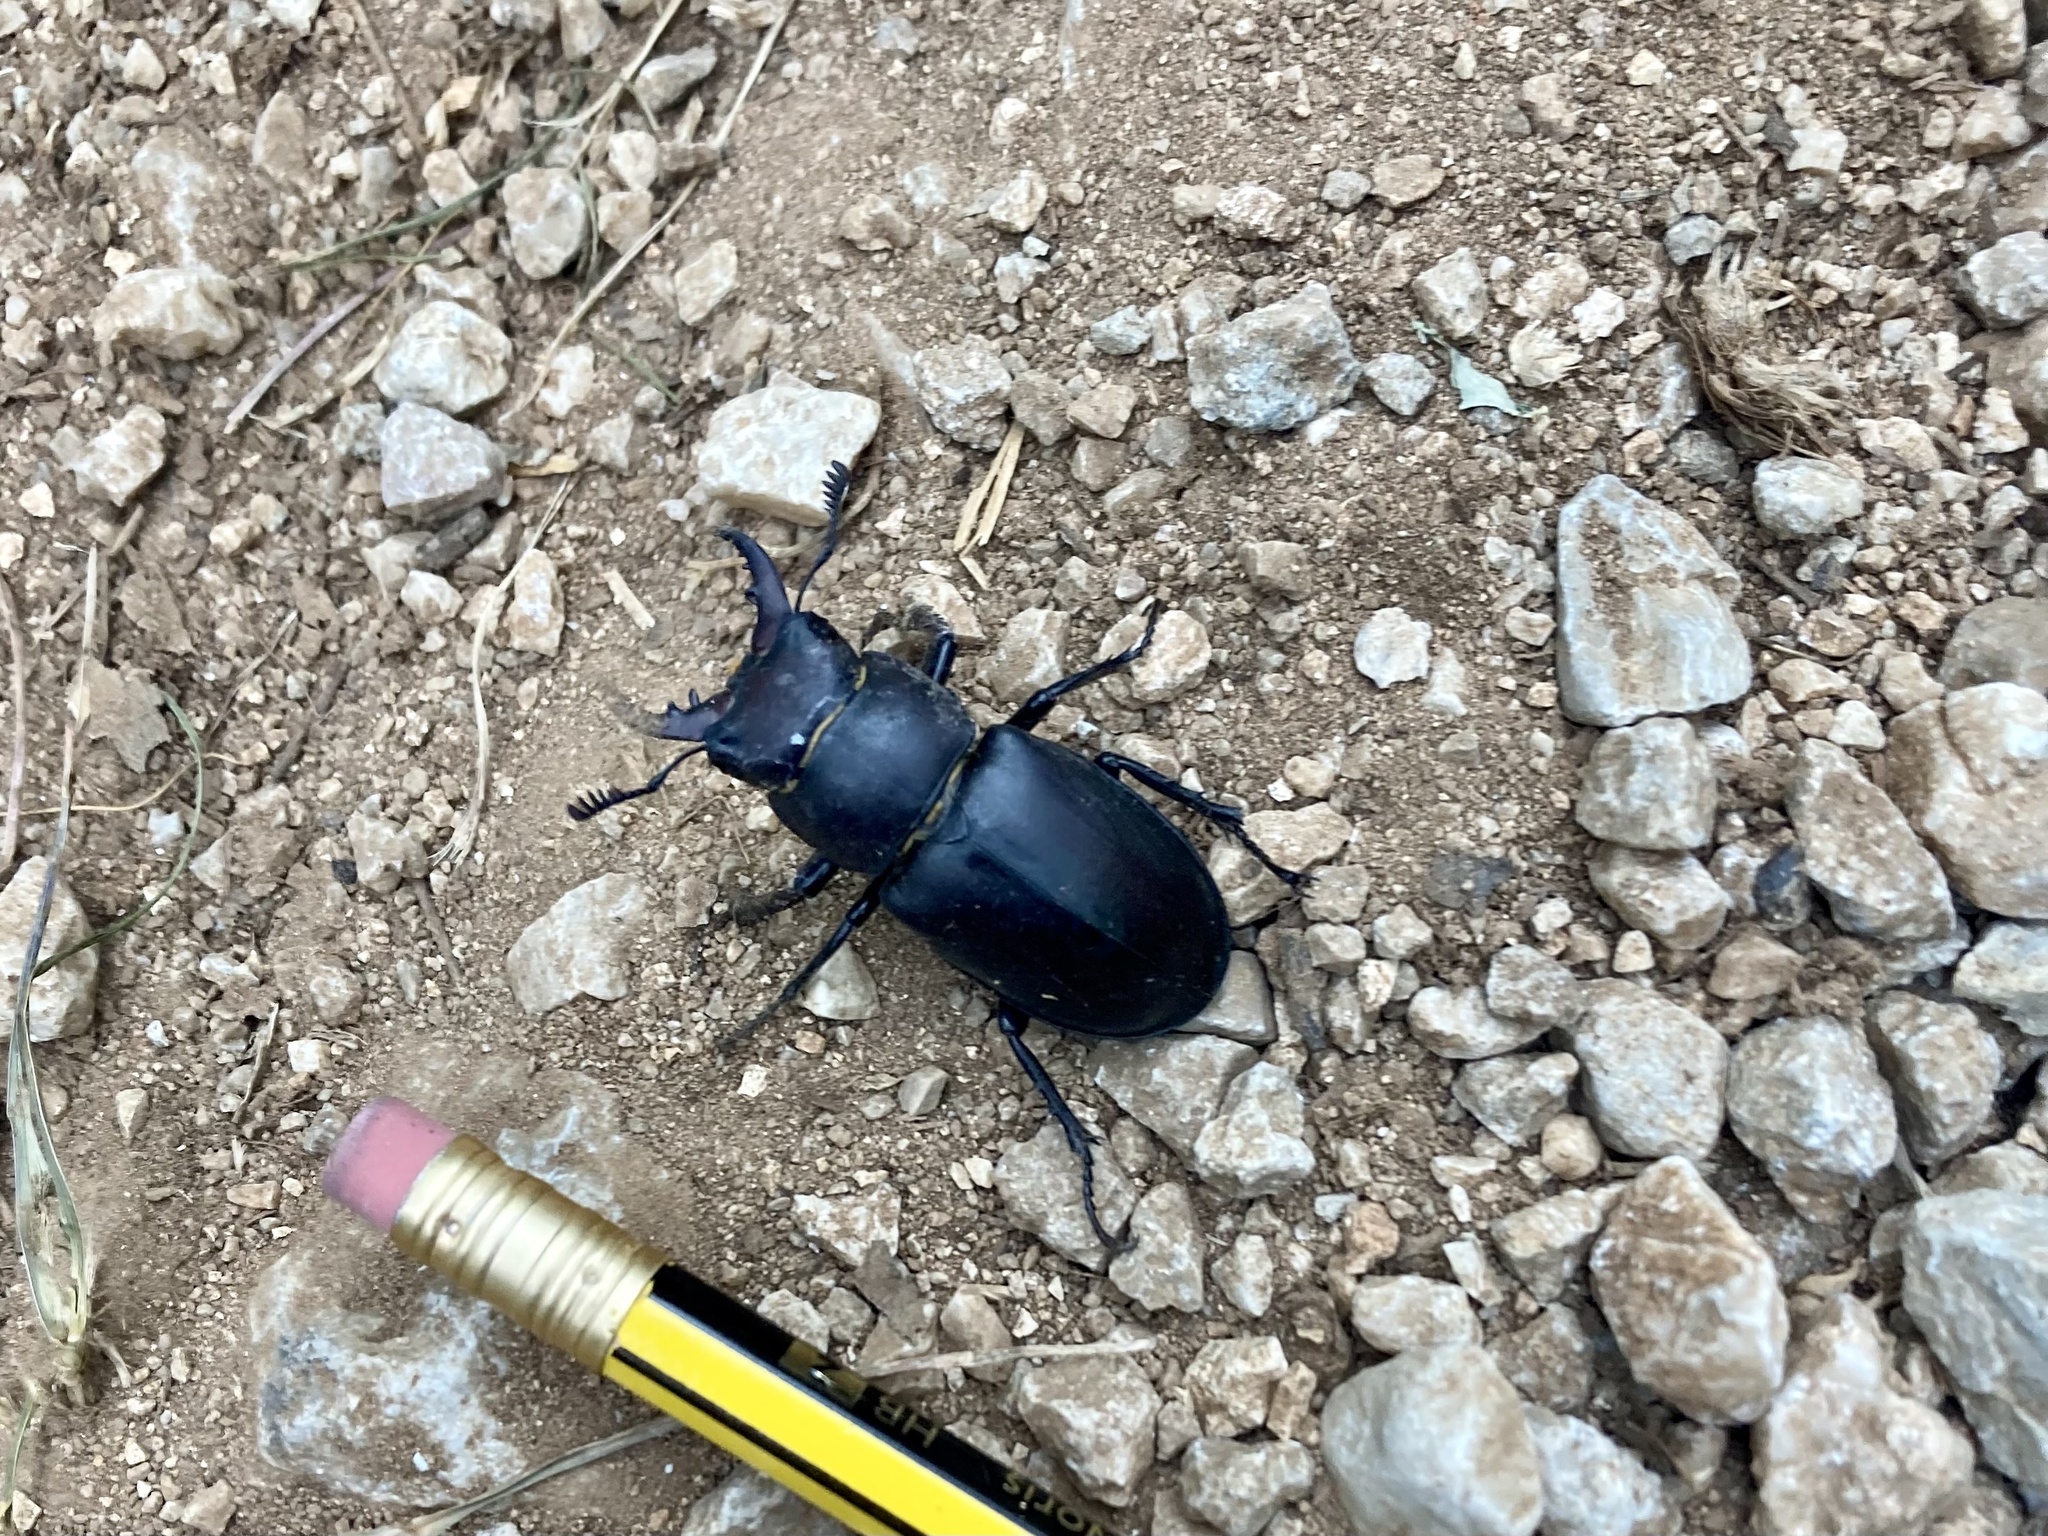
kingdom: Animalia
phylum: Arthropoda
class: Insecta
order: Coleoptera
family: Lucanidae
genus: Lucanus
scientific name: Lucanus tetraodon
